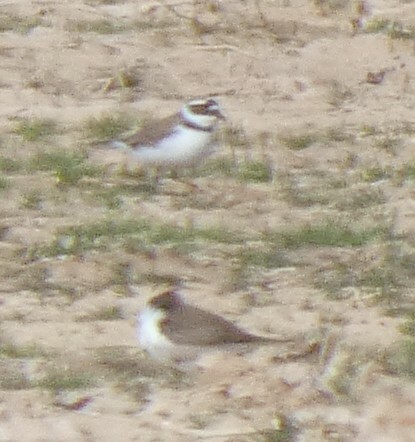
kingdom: Animalia
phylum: Chordata
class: Aves
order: Charadriiformes
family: Charadriidae
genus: Charadrius
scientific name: Charadrius dubius
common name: Little ringed plover
